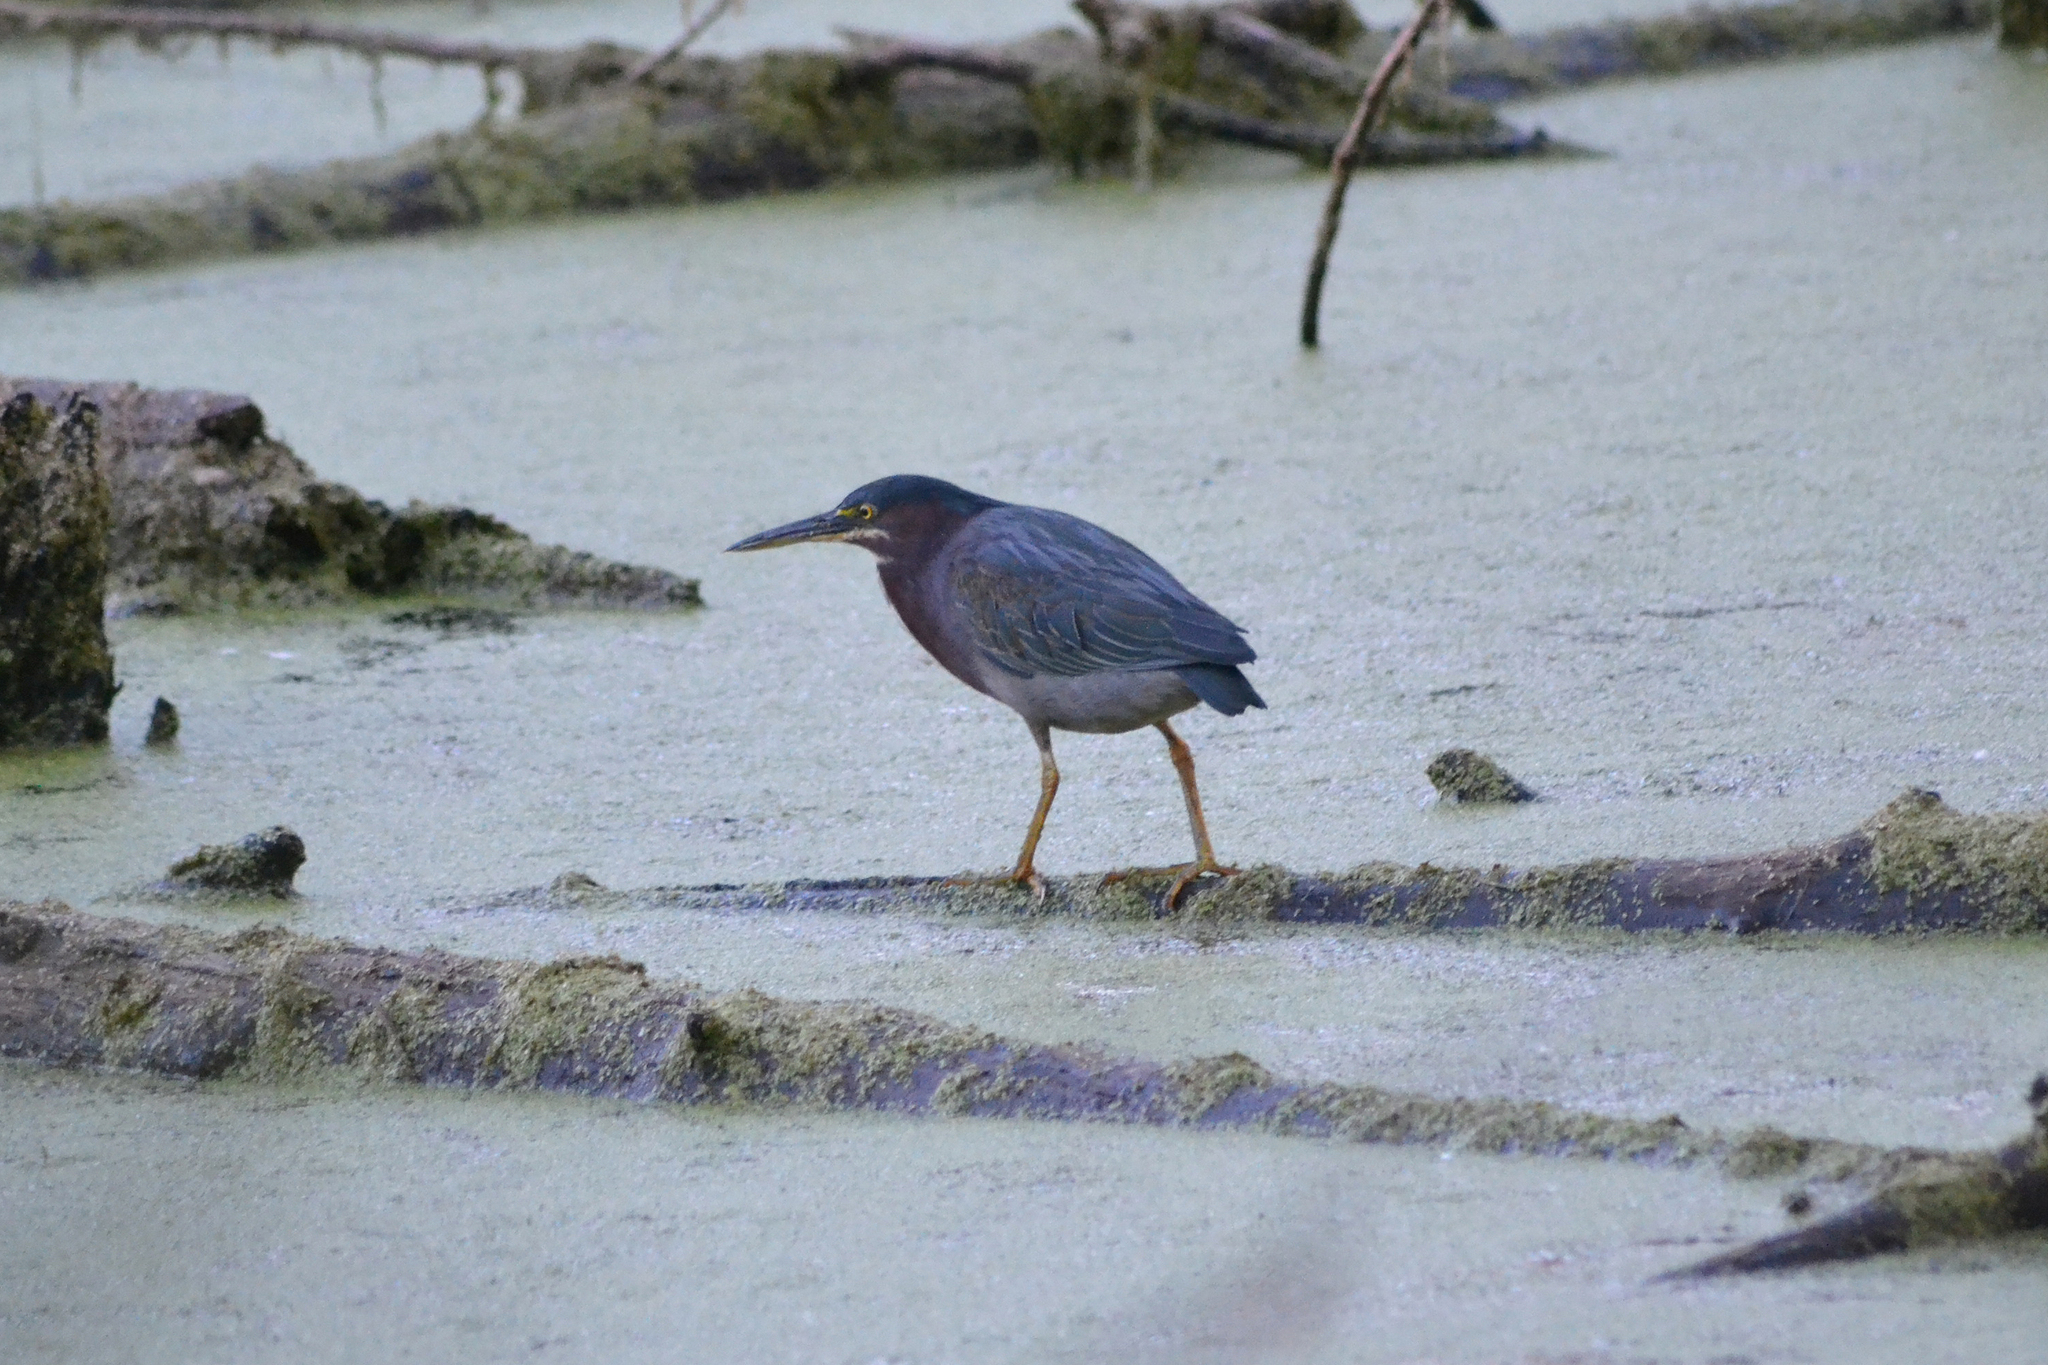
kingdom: Animalia
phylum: Chordata
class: Aves
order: Pelecaniformes
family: Ardeidae
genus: Butorides
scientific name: Butorides virescens
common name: Green heron
